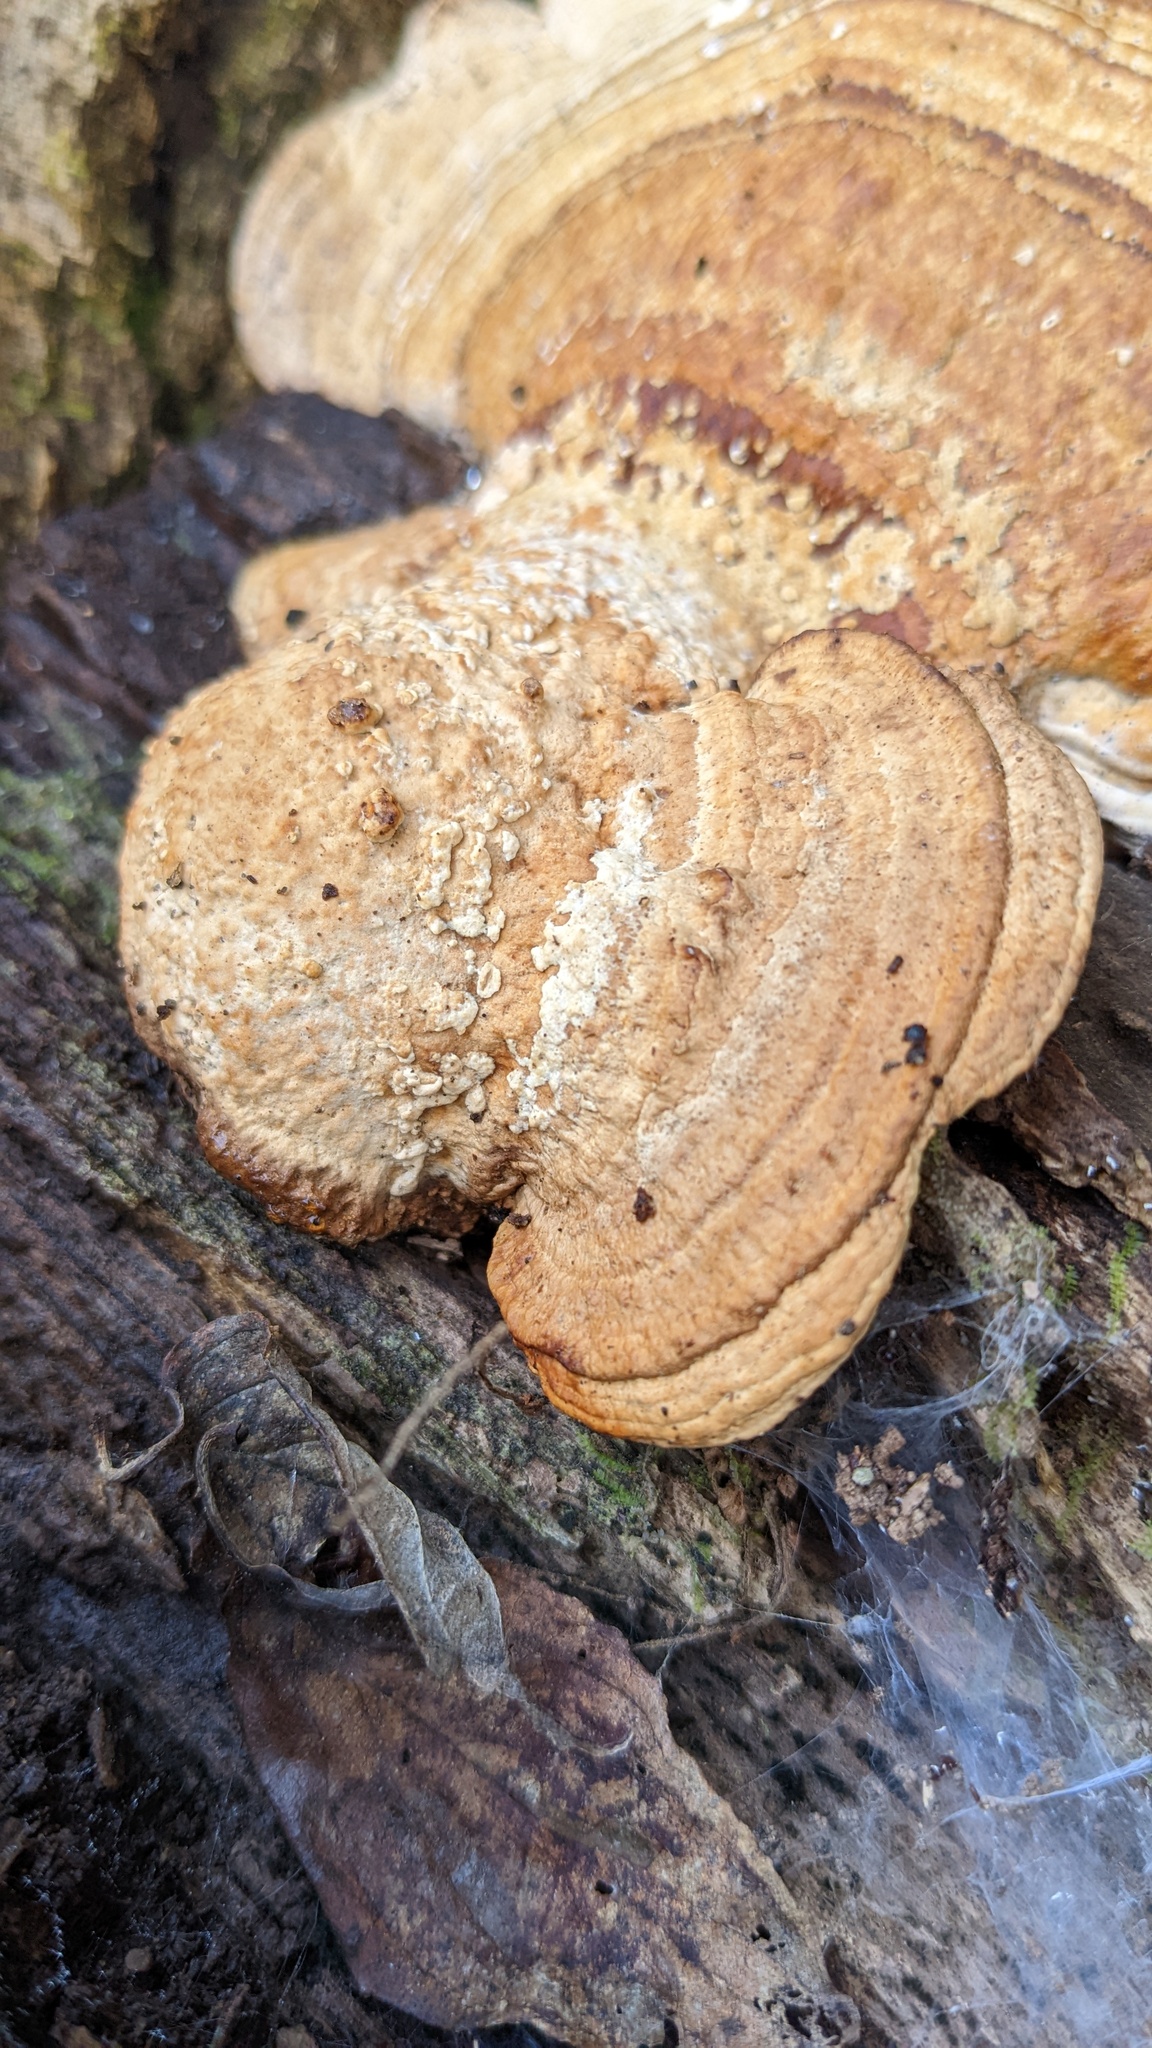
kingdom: Fungi
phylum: Basidiomycota
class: Agaricomycetes
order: Polyporales
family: Fomitopsidaceae
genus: Fomitopsis
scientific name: Fomitopsis
